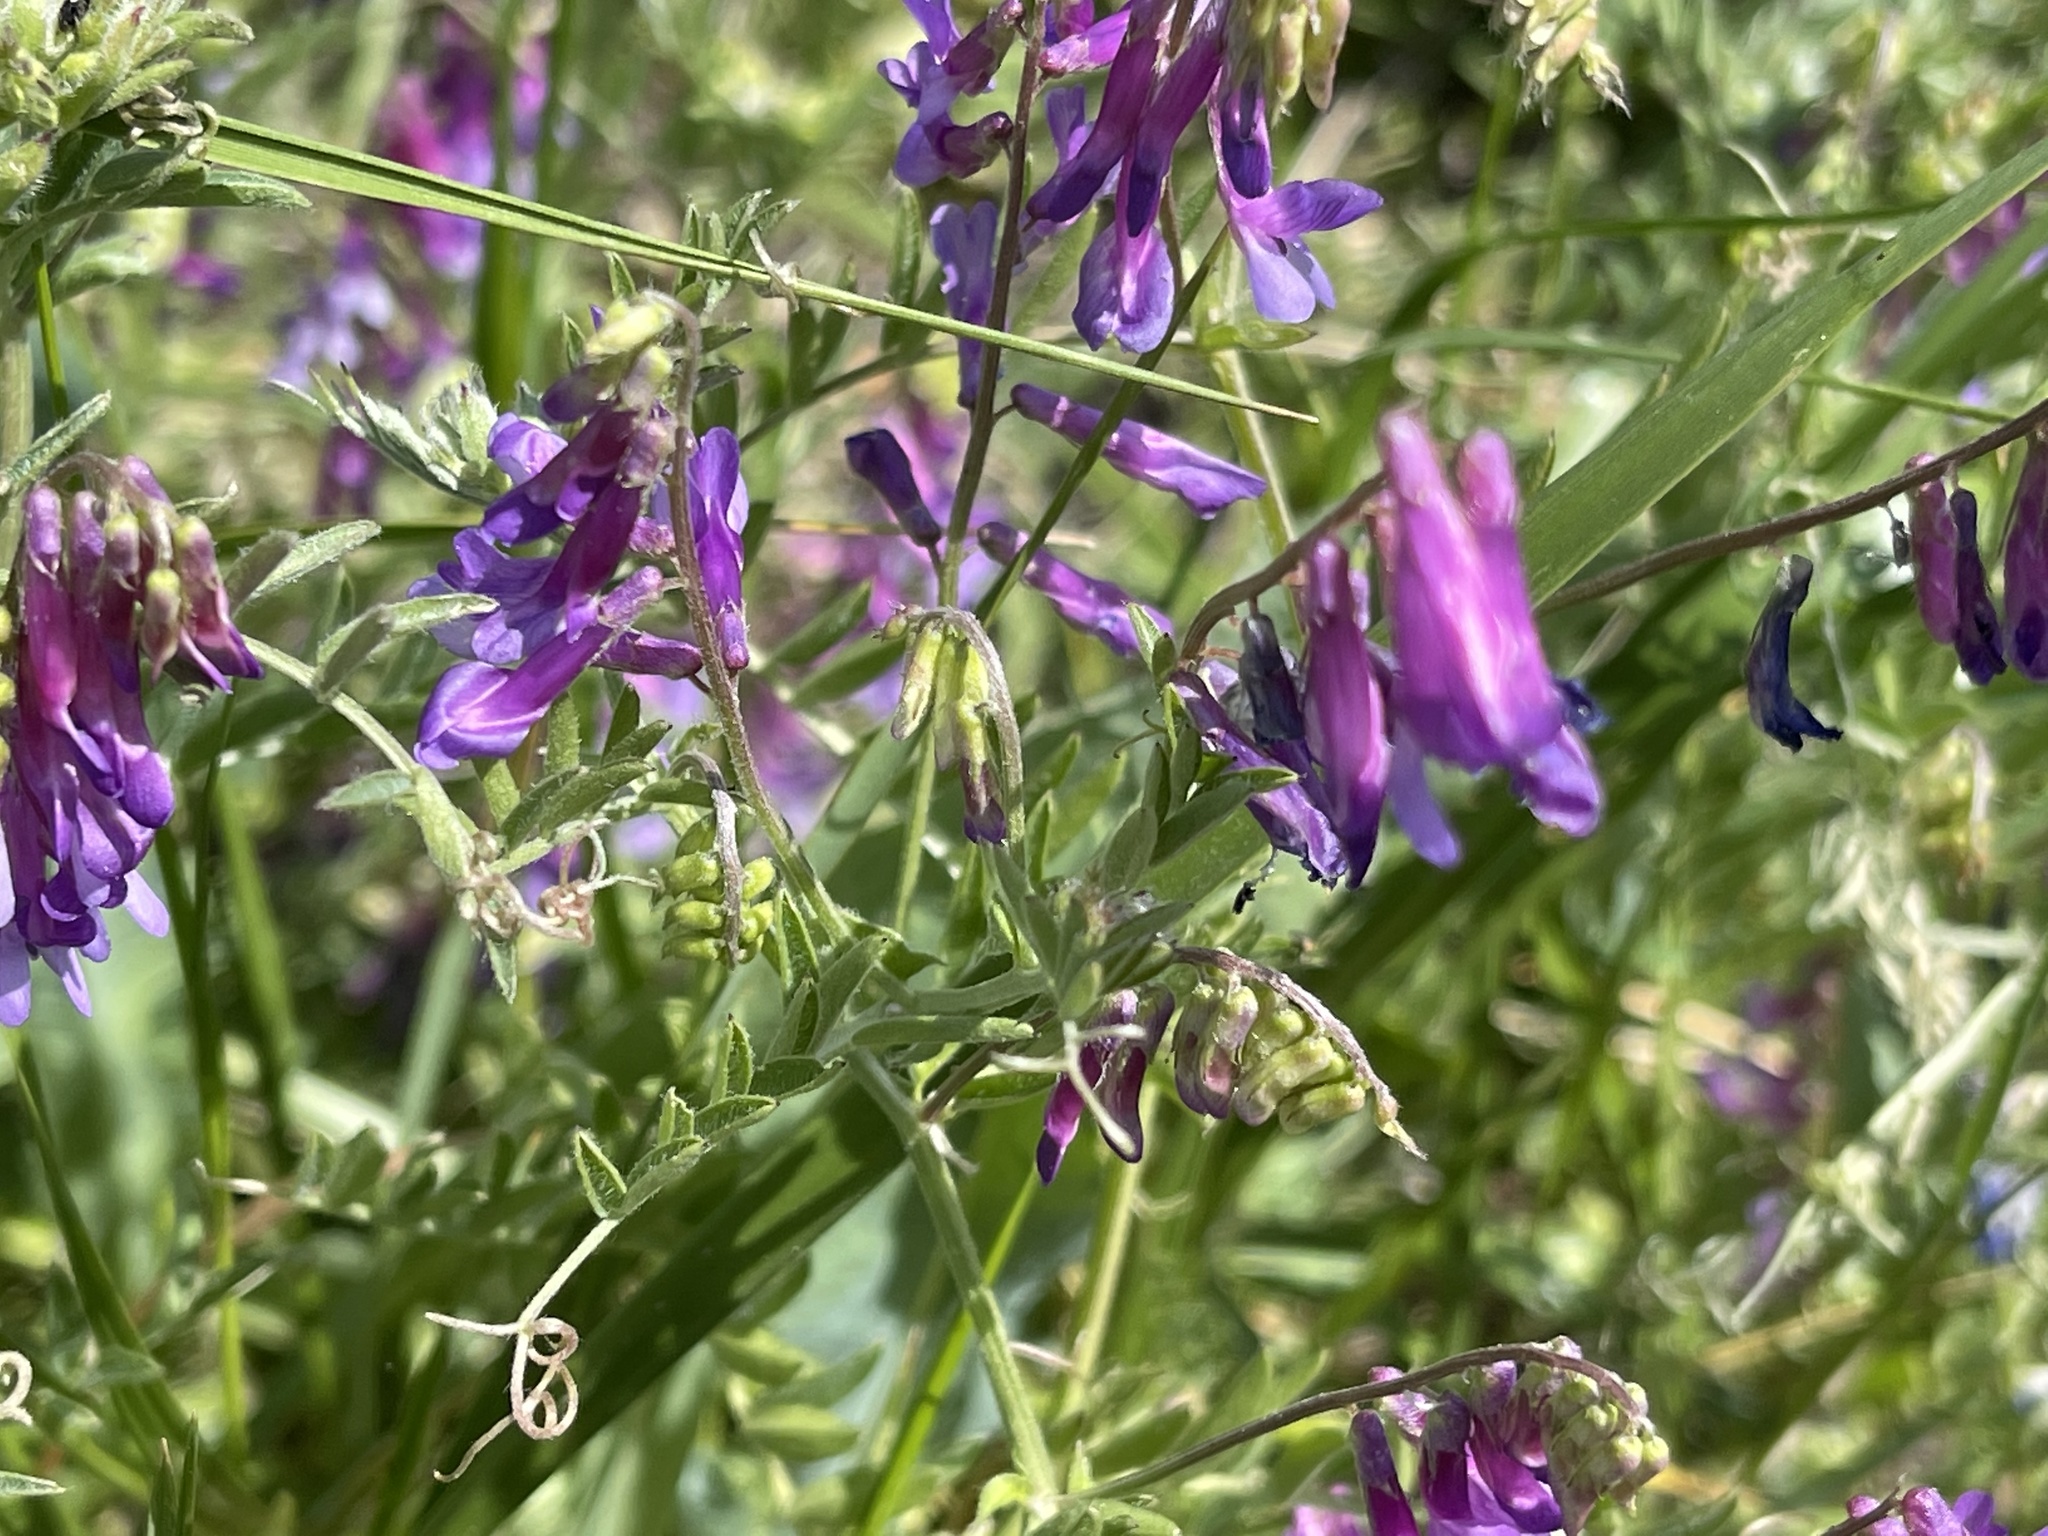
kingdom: Plantae
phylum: Tracheophyta
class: Magnoliopsida
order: Fabales
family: Fabaceae
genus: Vicia
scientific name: Vicia villosa
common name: Fodder vetch
